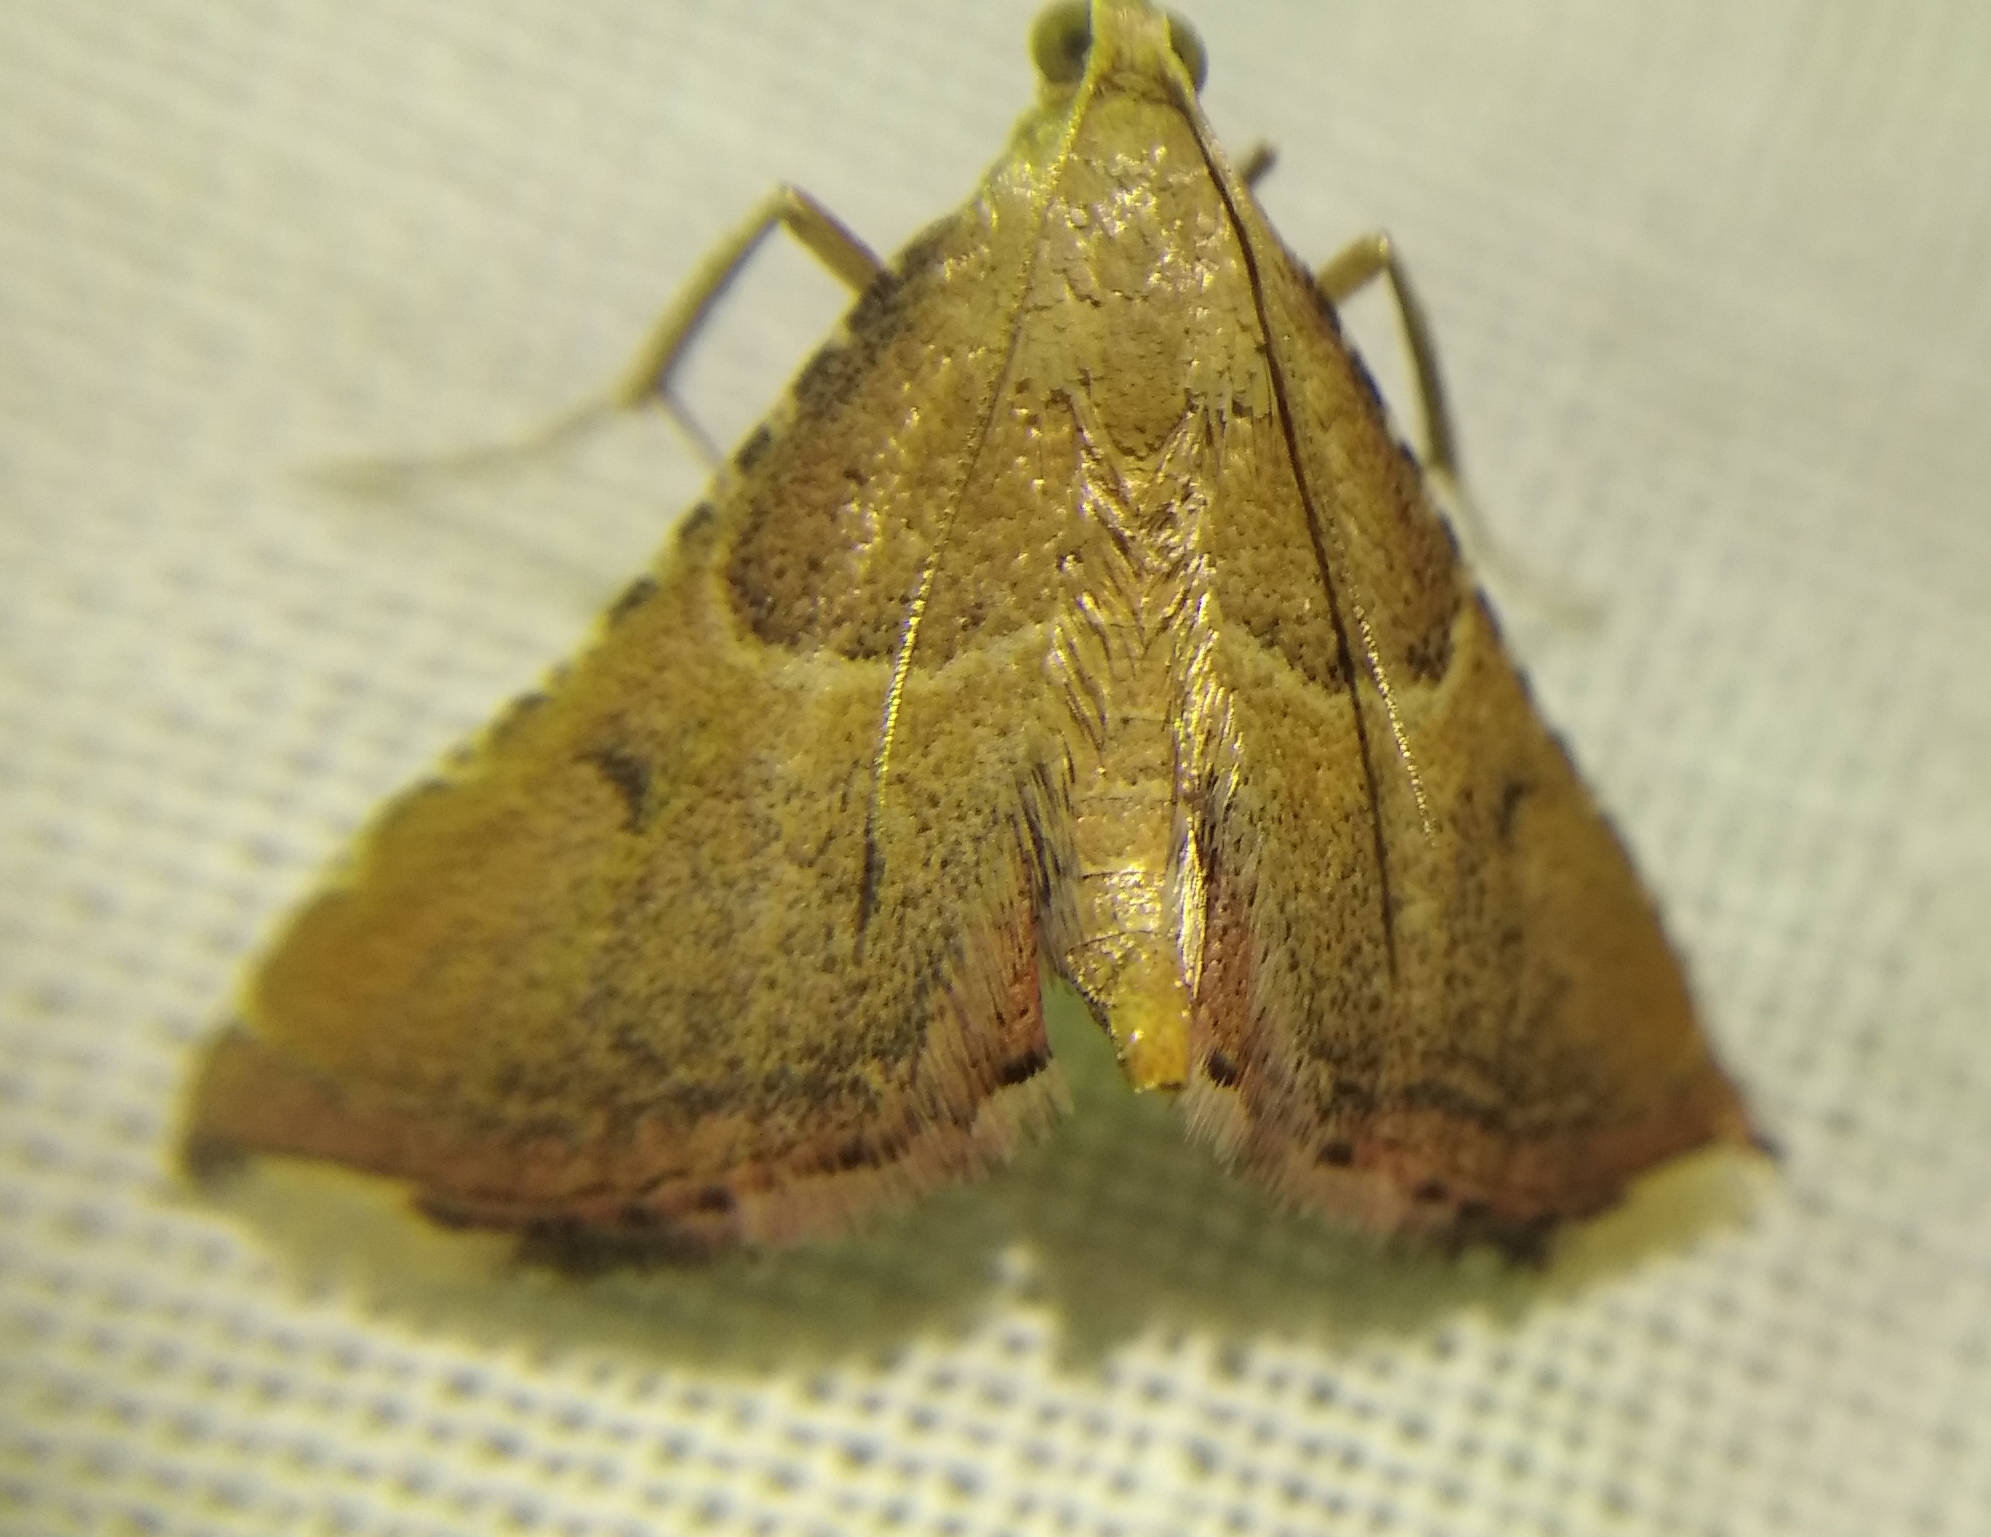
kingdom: Animalia
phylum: Arthropoda
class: Insecta
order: Lepidoptera
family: Pyralidae
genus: Endotricha
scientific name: Endotricha flammealis
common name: Rosy tabby
